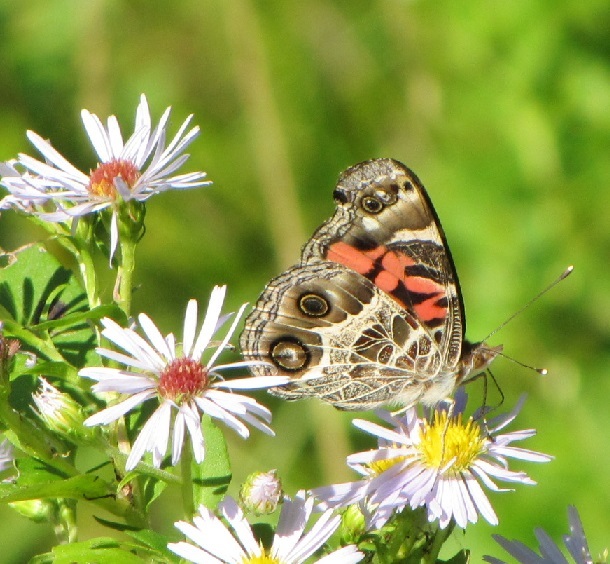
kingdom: Animalia
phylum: Arthropoda
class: Insecta
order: Lepidoptera
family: Nymphalidae
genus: Vanessa
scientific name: Vanessa virginiensis
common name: American lady
